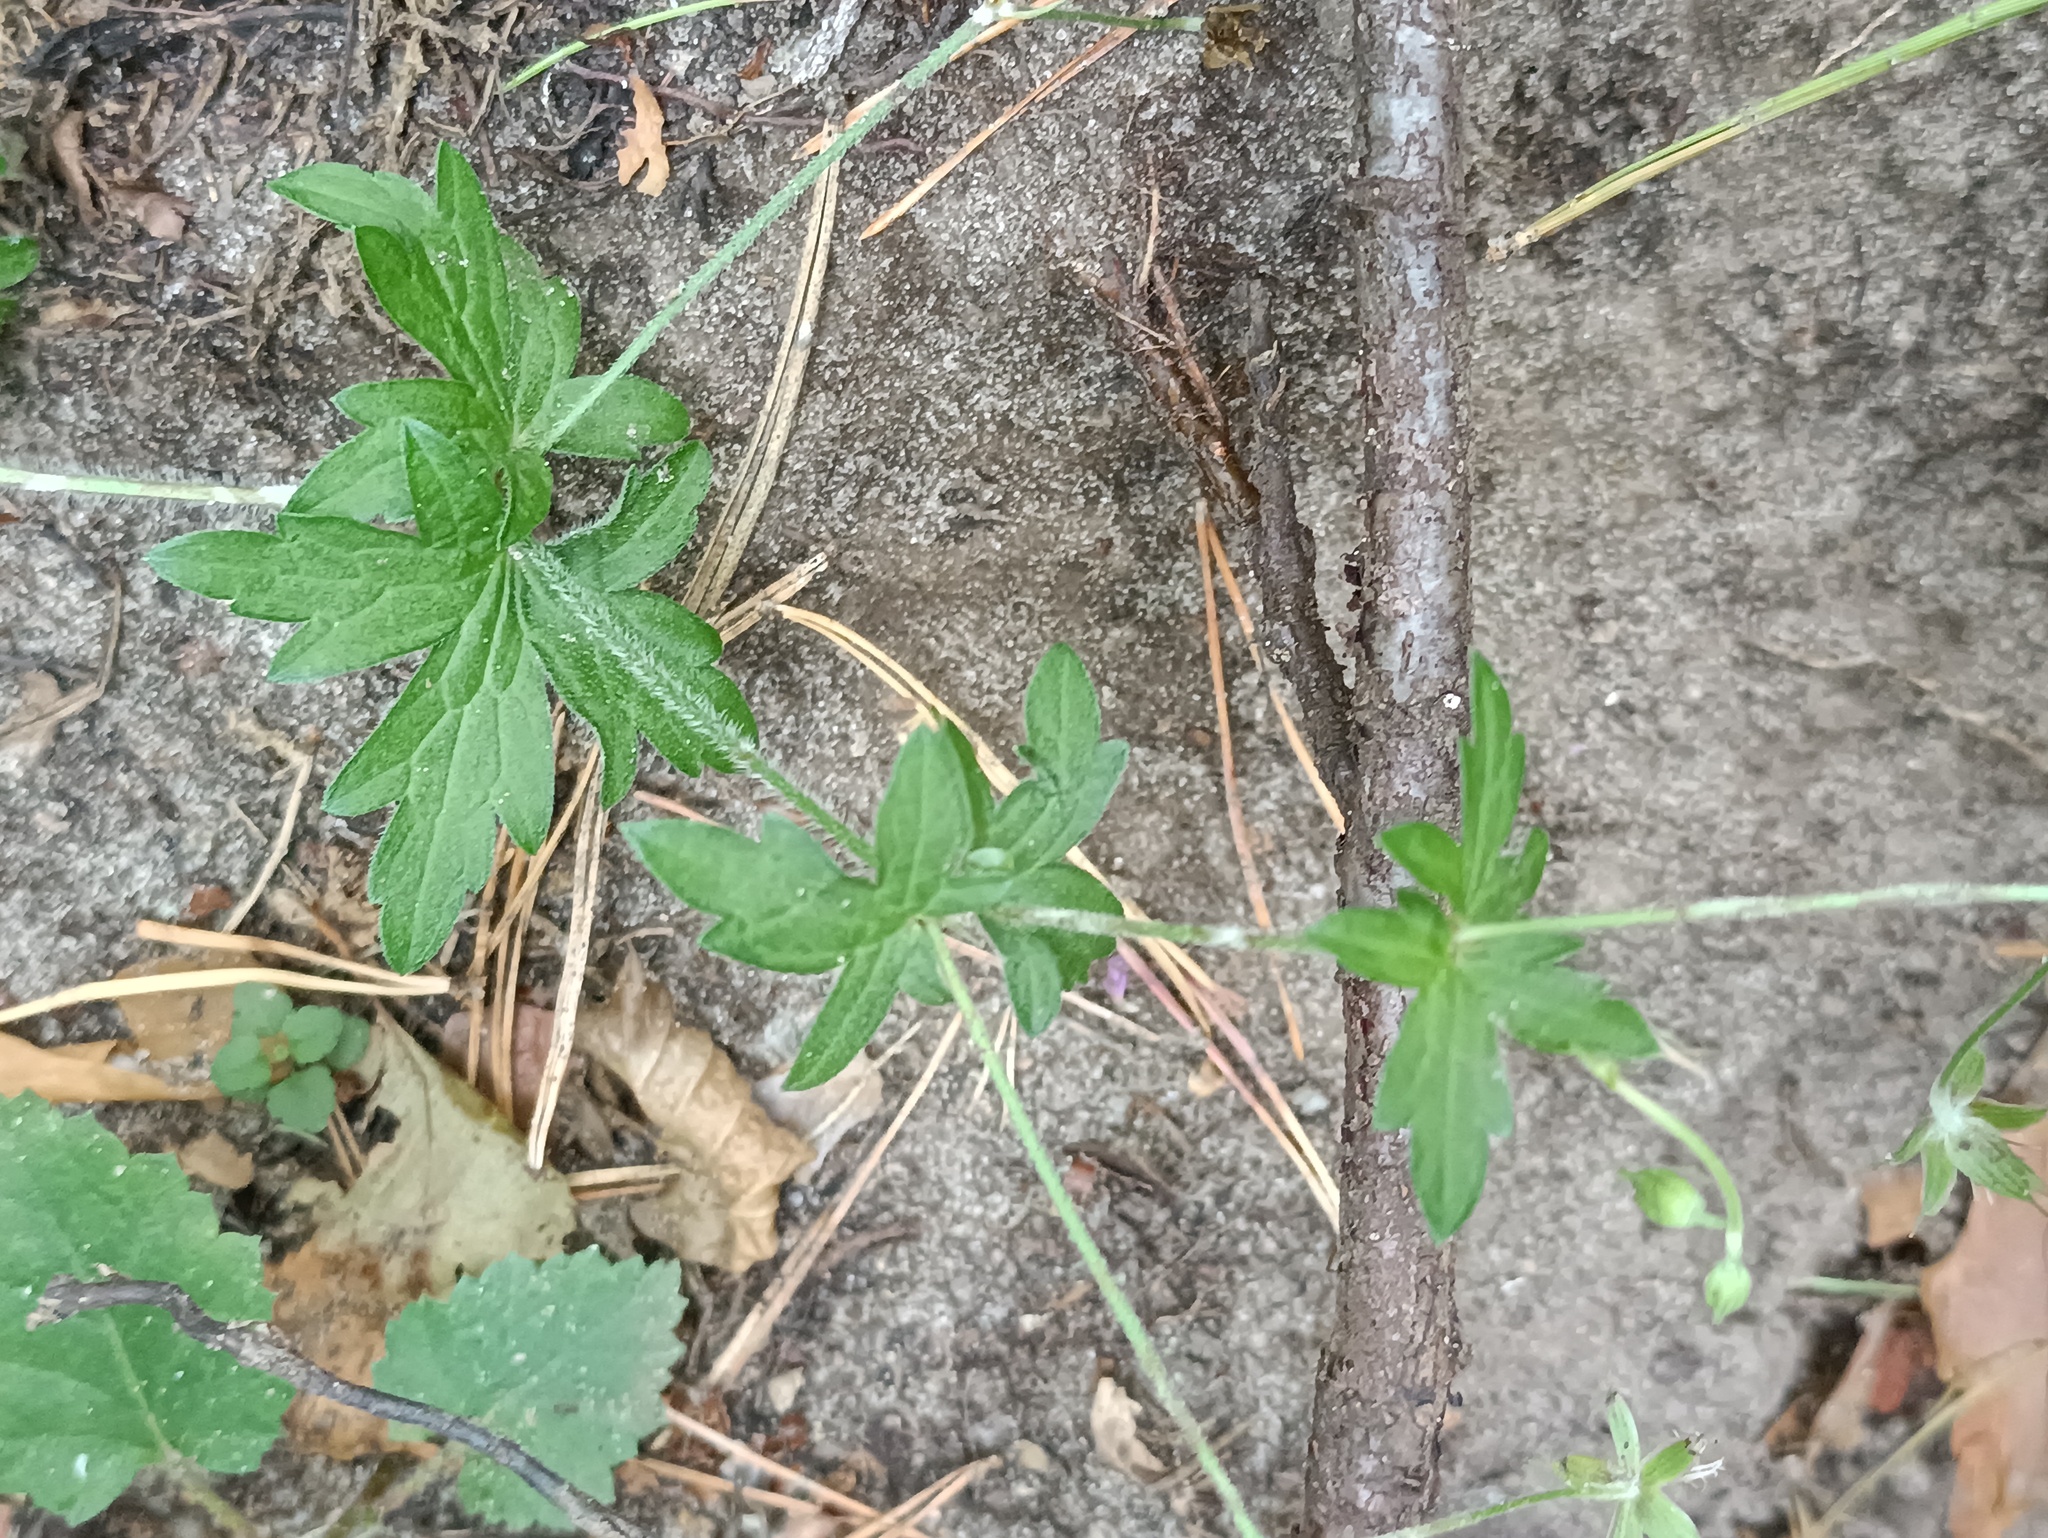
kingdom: Plantae
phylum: Tracheophyta
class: Magnoliopsida
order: Geraniales
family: Geraniaceae
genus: Geranium
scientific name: Geranium palustre
